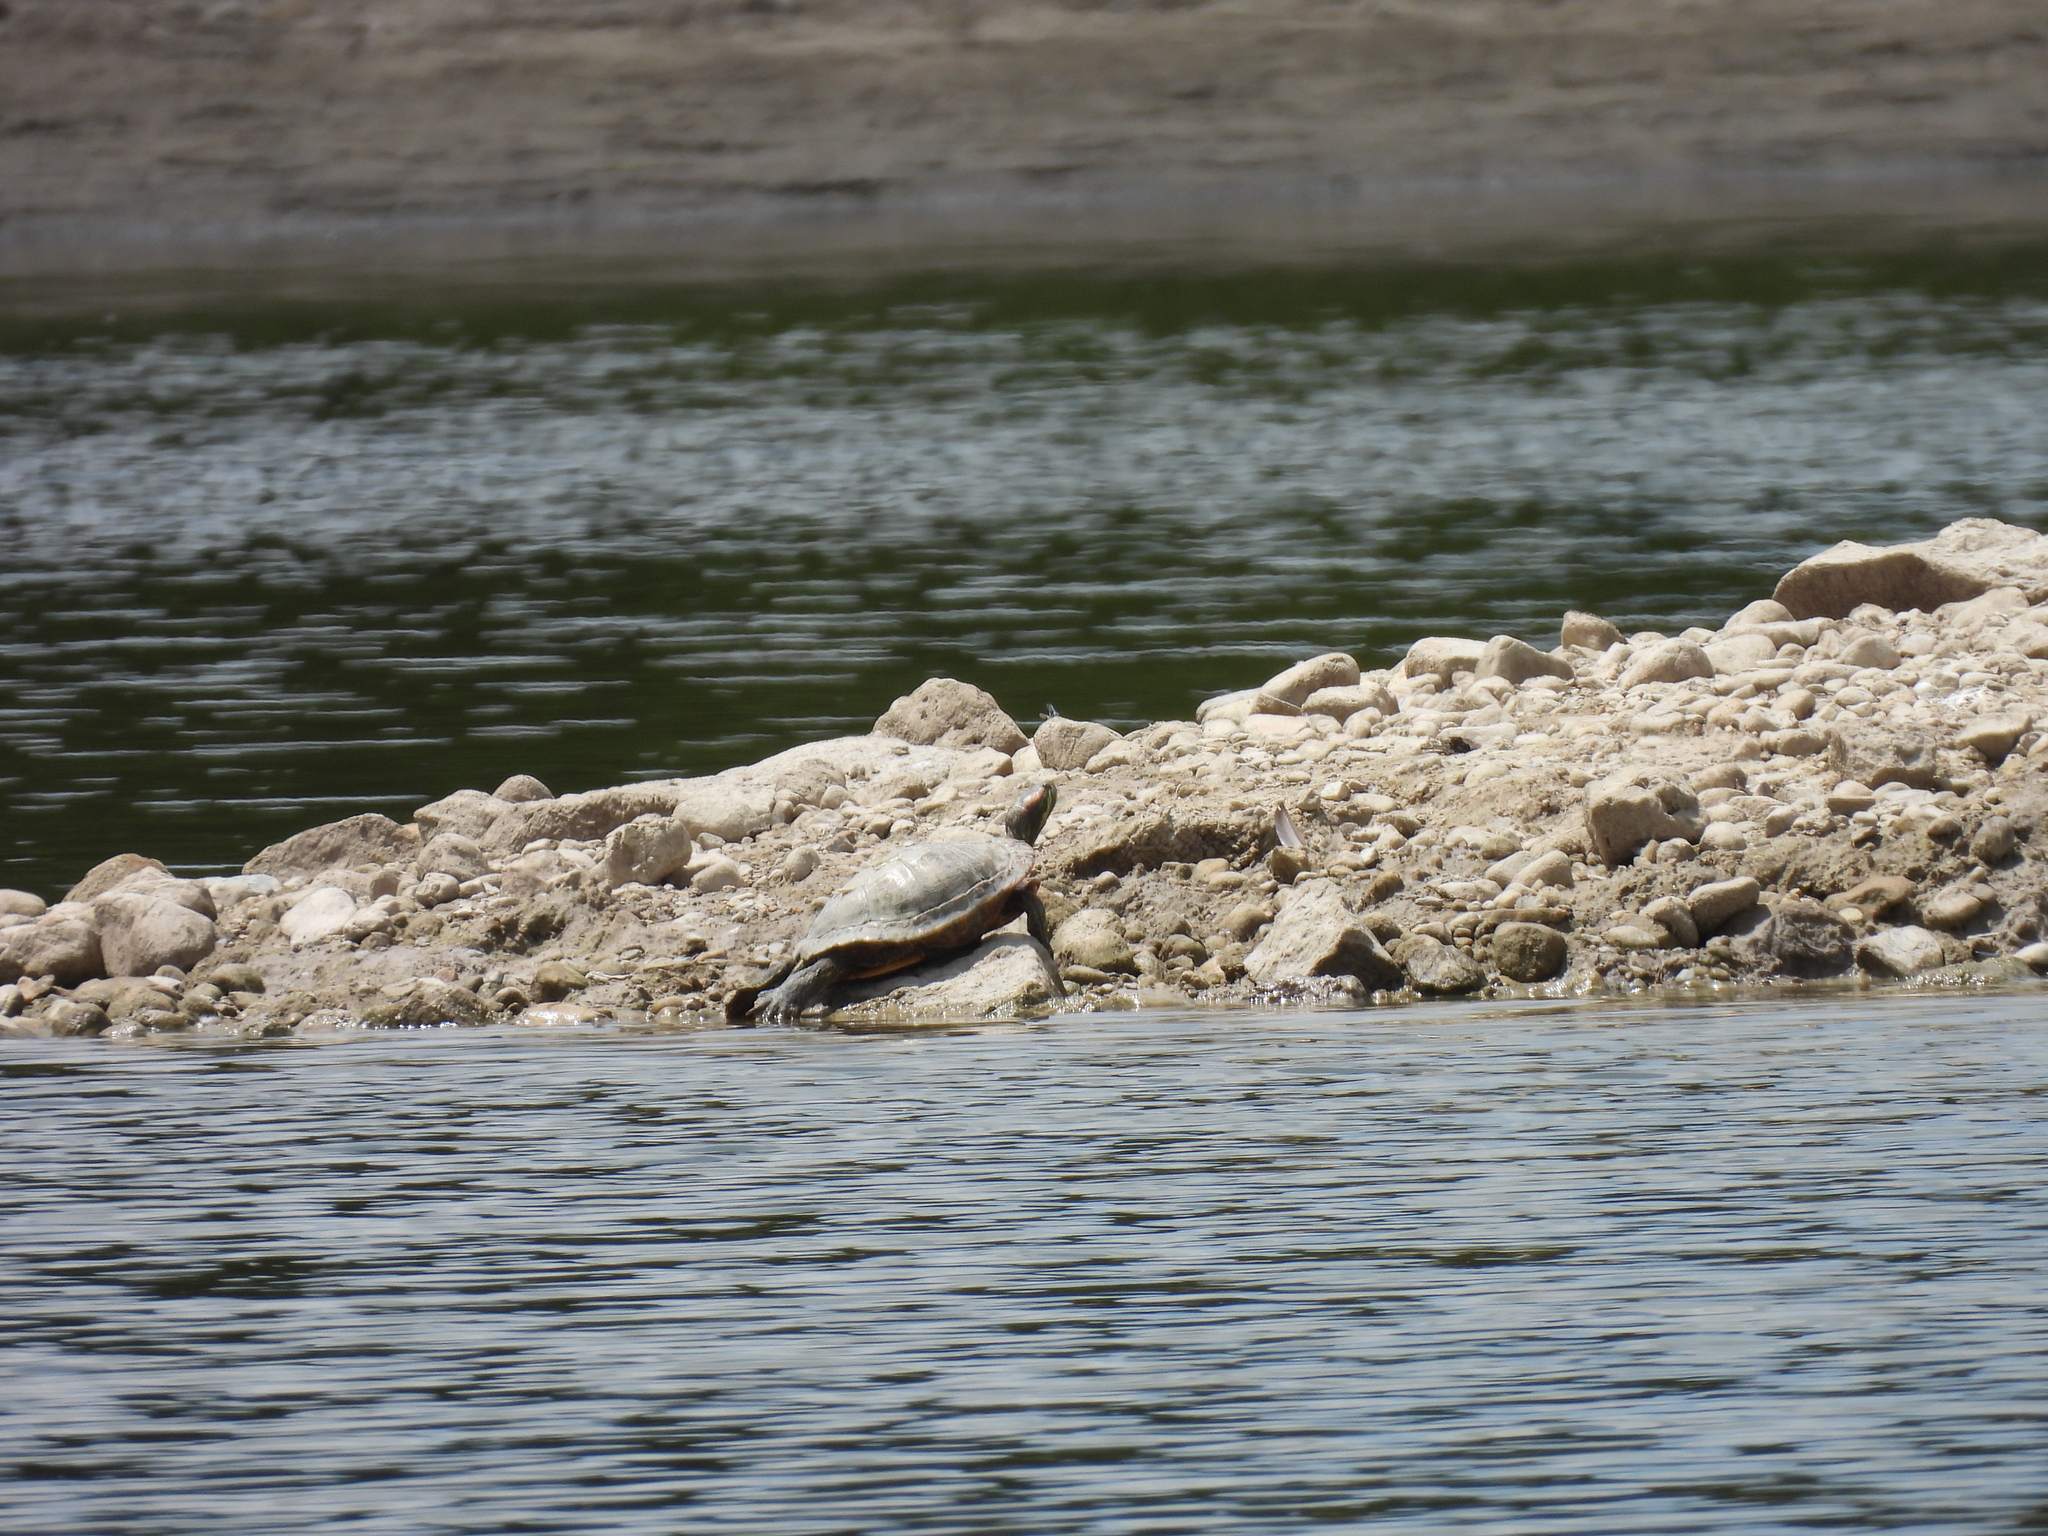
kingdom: Animalia
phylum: Chordata
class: Testudines
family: Emydidae
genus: Trachemys
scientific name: Trachemys scripta
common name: Slider
